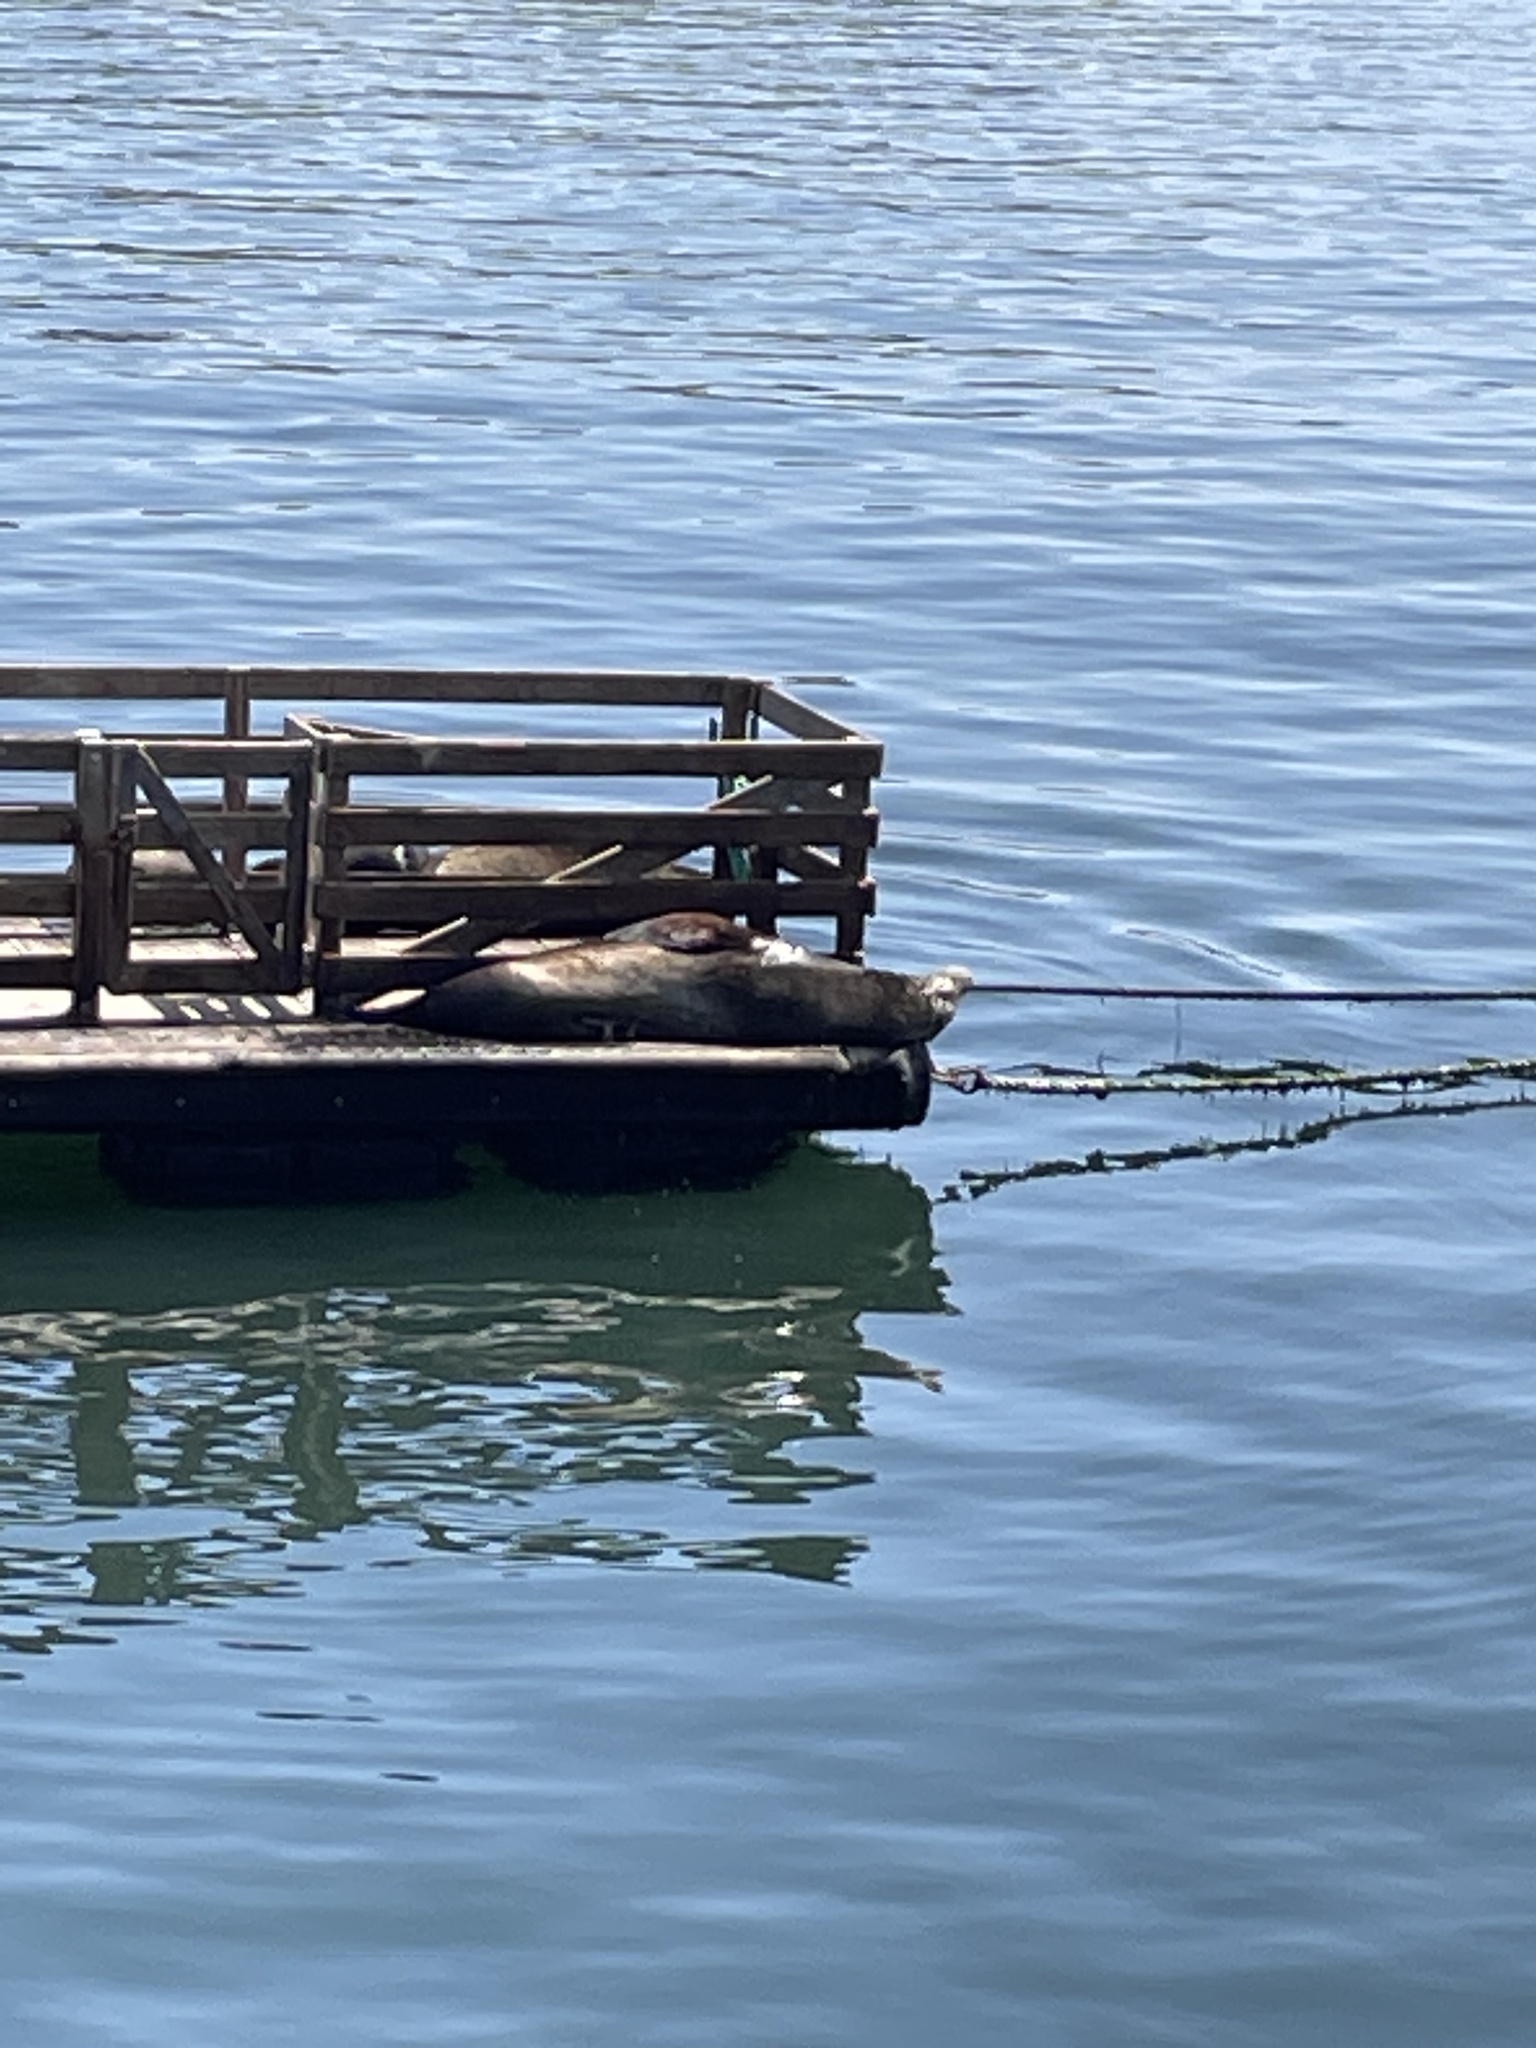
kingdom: Animalia
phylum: Chordata
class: Mammalia
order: Carnivora
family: Otariidae
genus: Zalophus
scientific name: Zalophus californianus
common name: California sea lion
